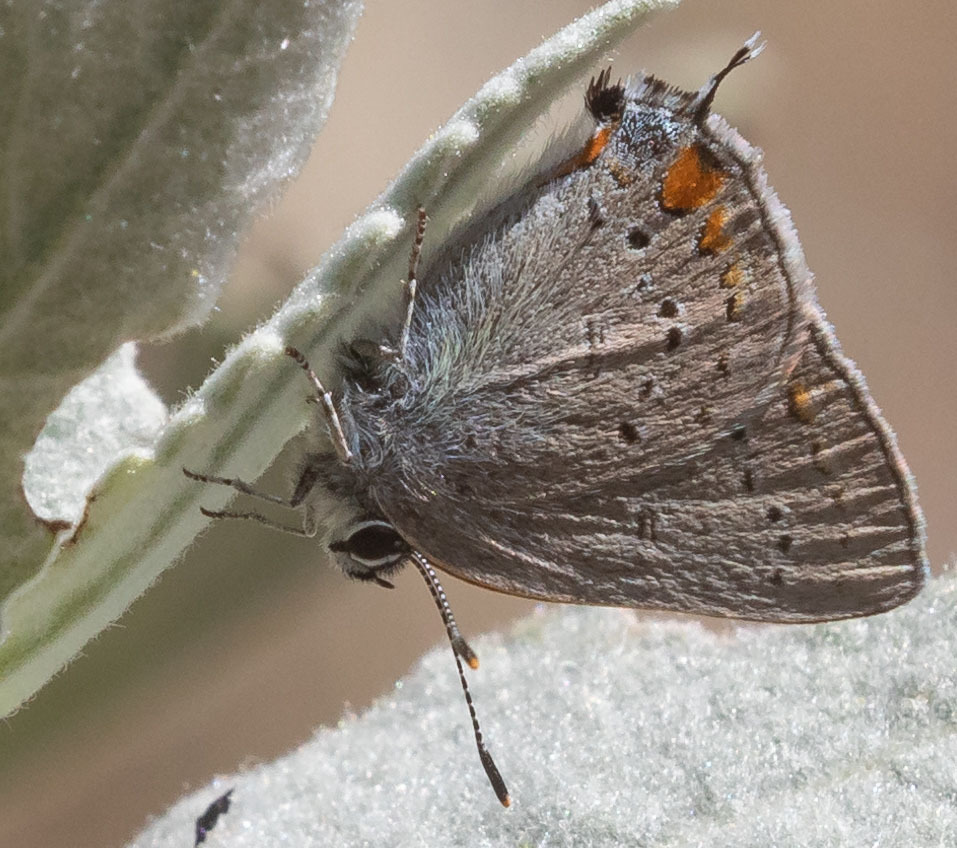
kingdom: Animalia
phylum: Arthropoda
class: Insecta
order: Lepidoptera
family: Lycaenidae
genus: Strymon
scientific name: Strymon acadica
